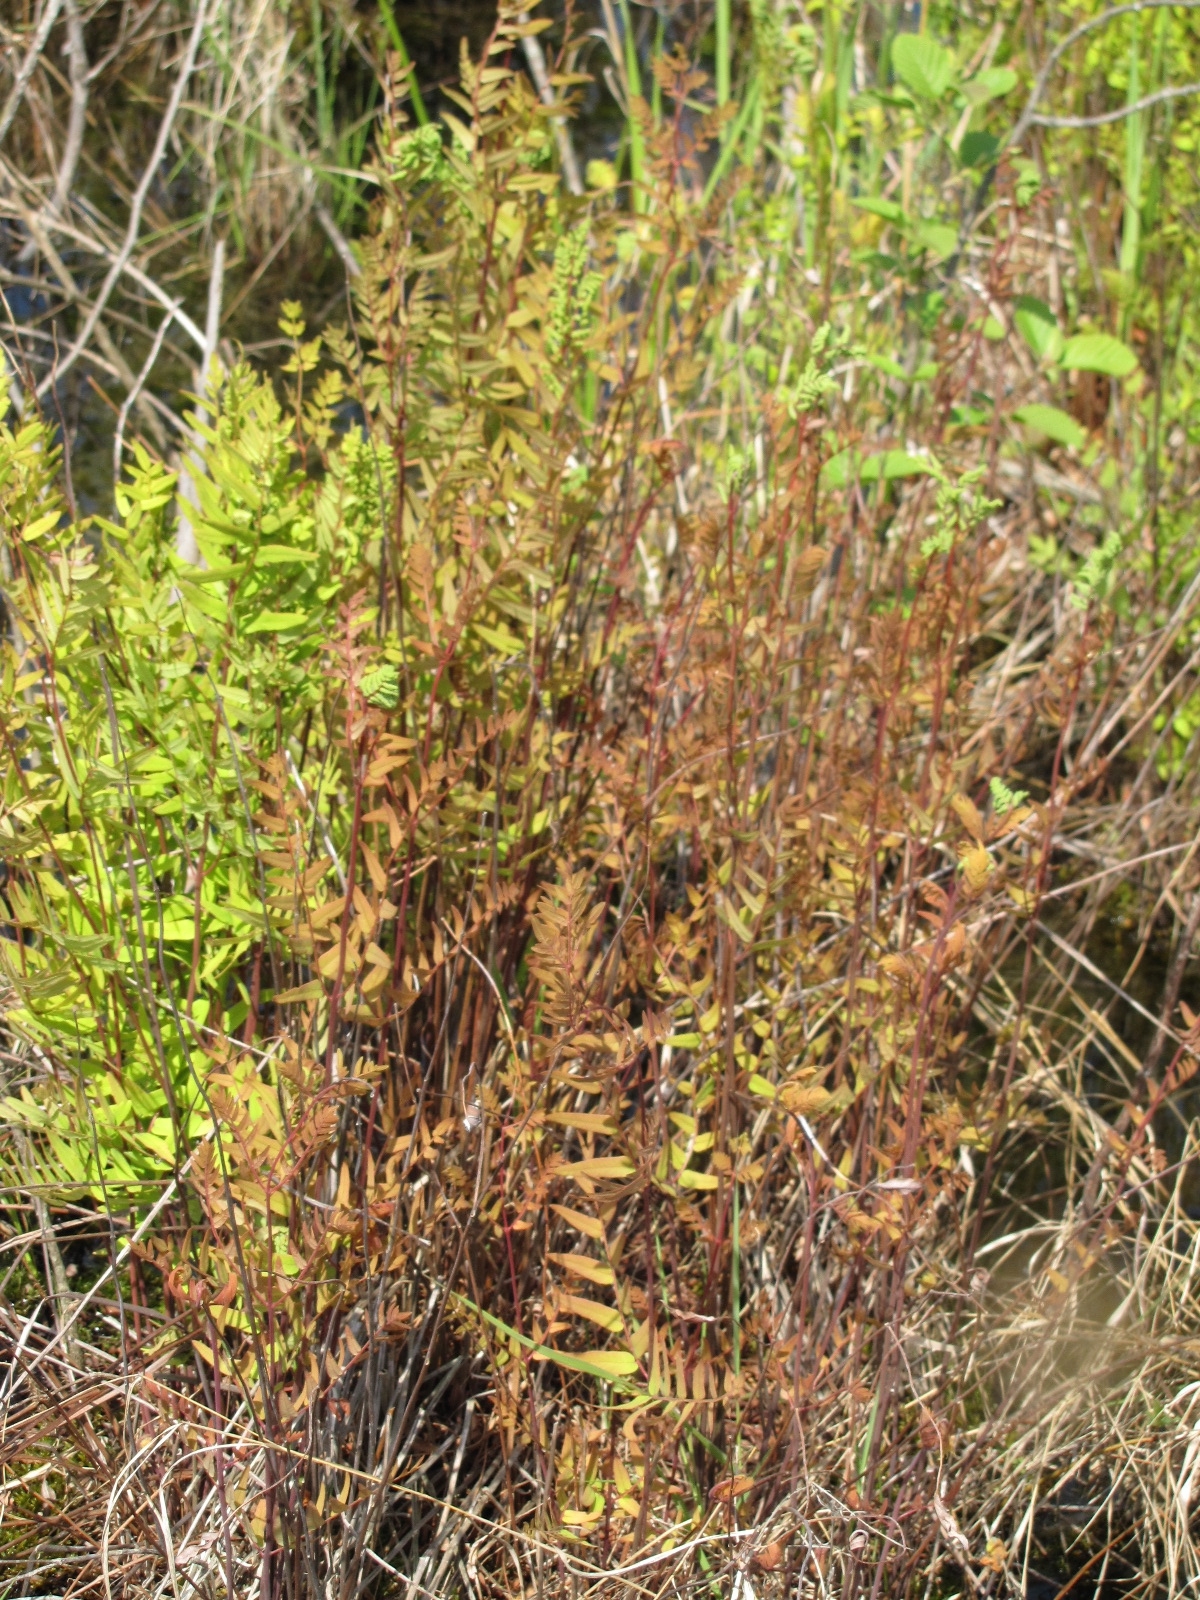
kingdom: Plantae
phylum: Tracheophyta
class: Polypodiopsida
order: Osmundales
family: Osmundaceae
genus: Osmunda
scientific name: Osmunda spectabilis
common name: American royal fern
